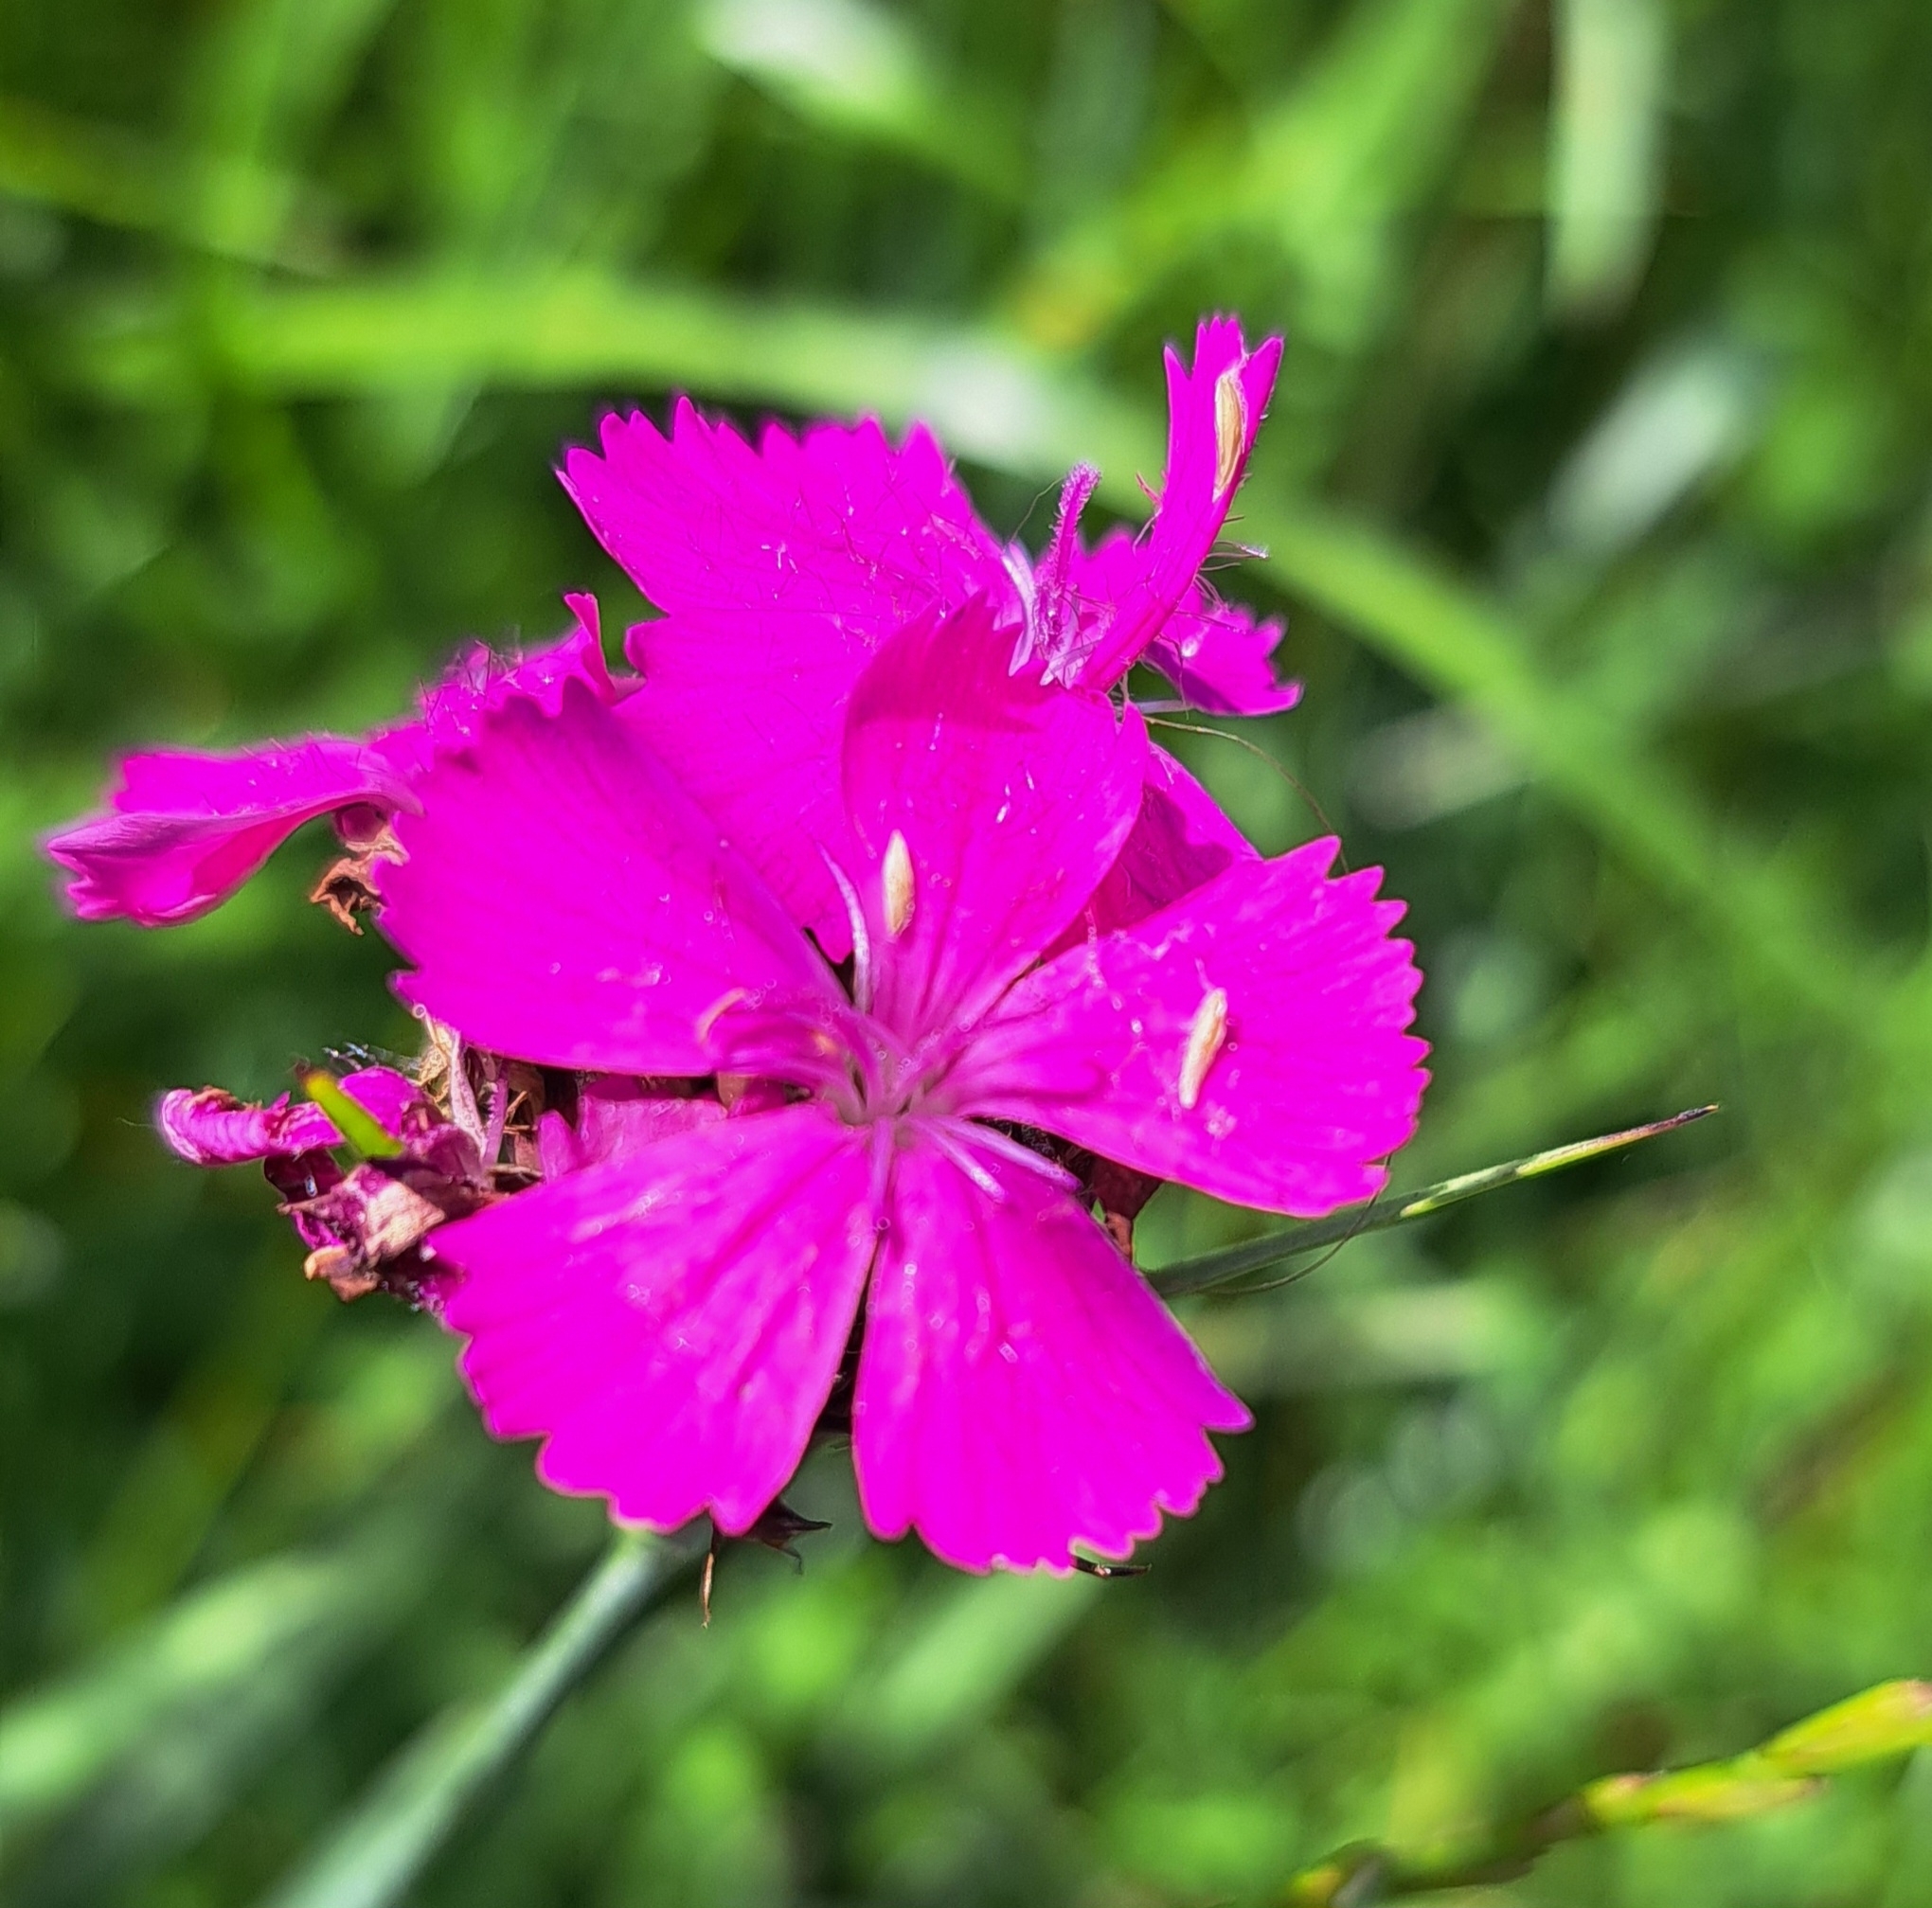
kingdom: Plantae
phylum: Tracheophyta
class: Magnoliopsida
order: Caryophyllales
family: Caryophyllaceae
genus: Dianthus
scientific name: Dianthus carthusianorum
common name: Carthusian pink
